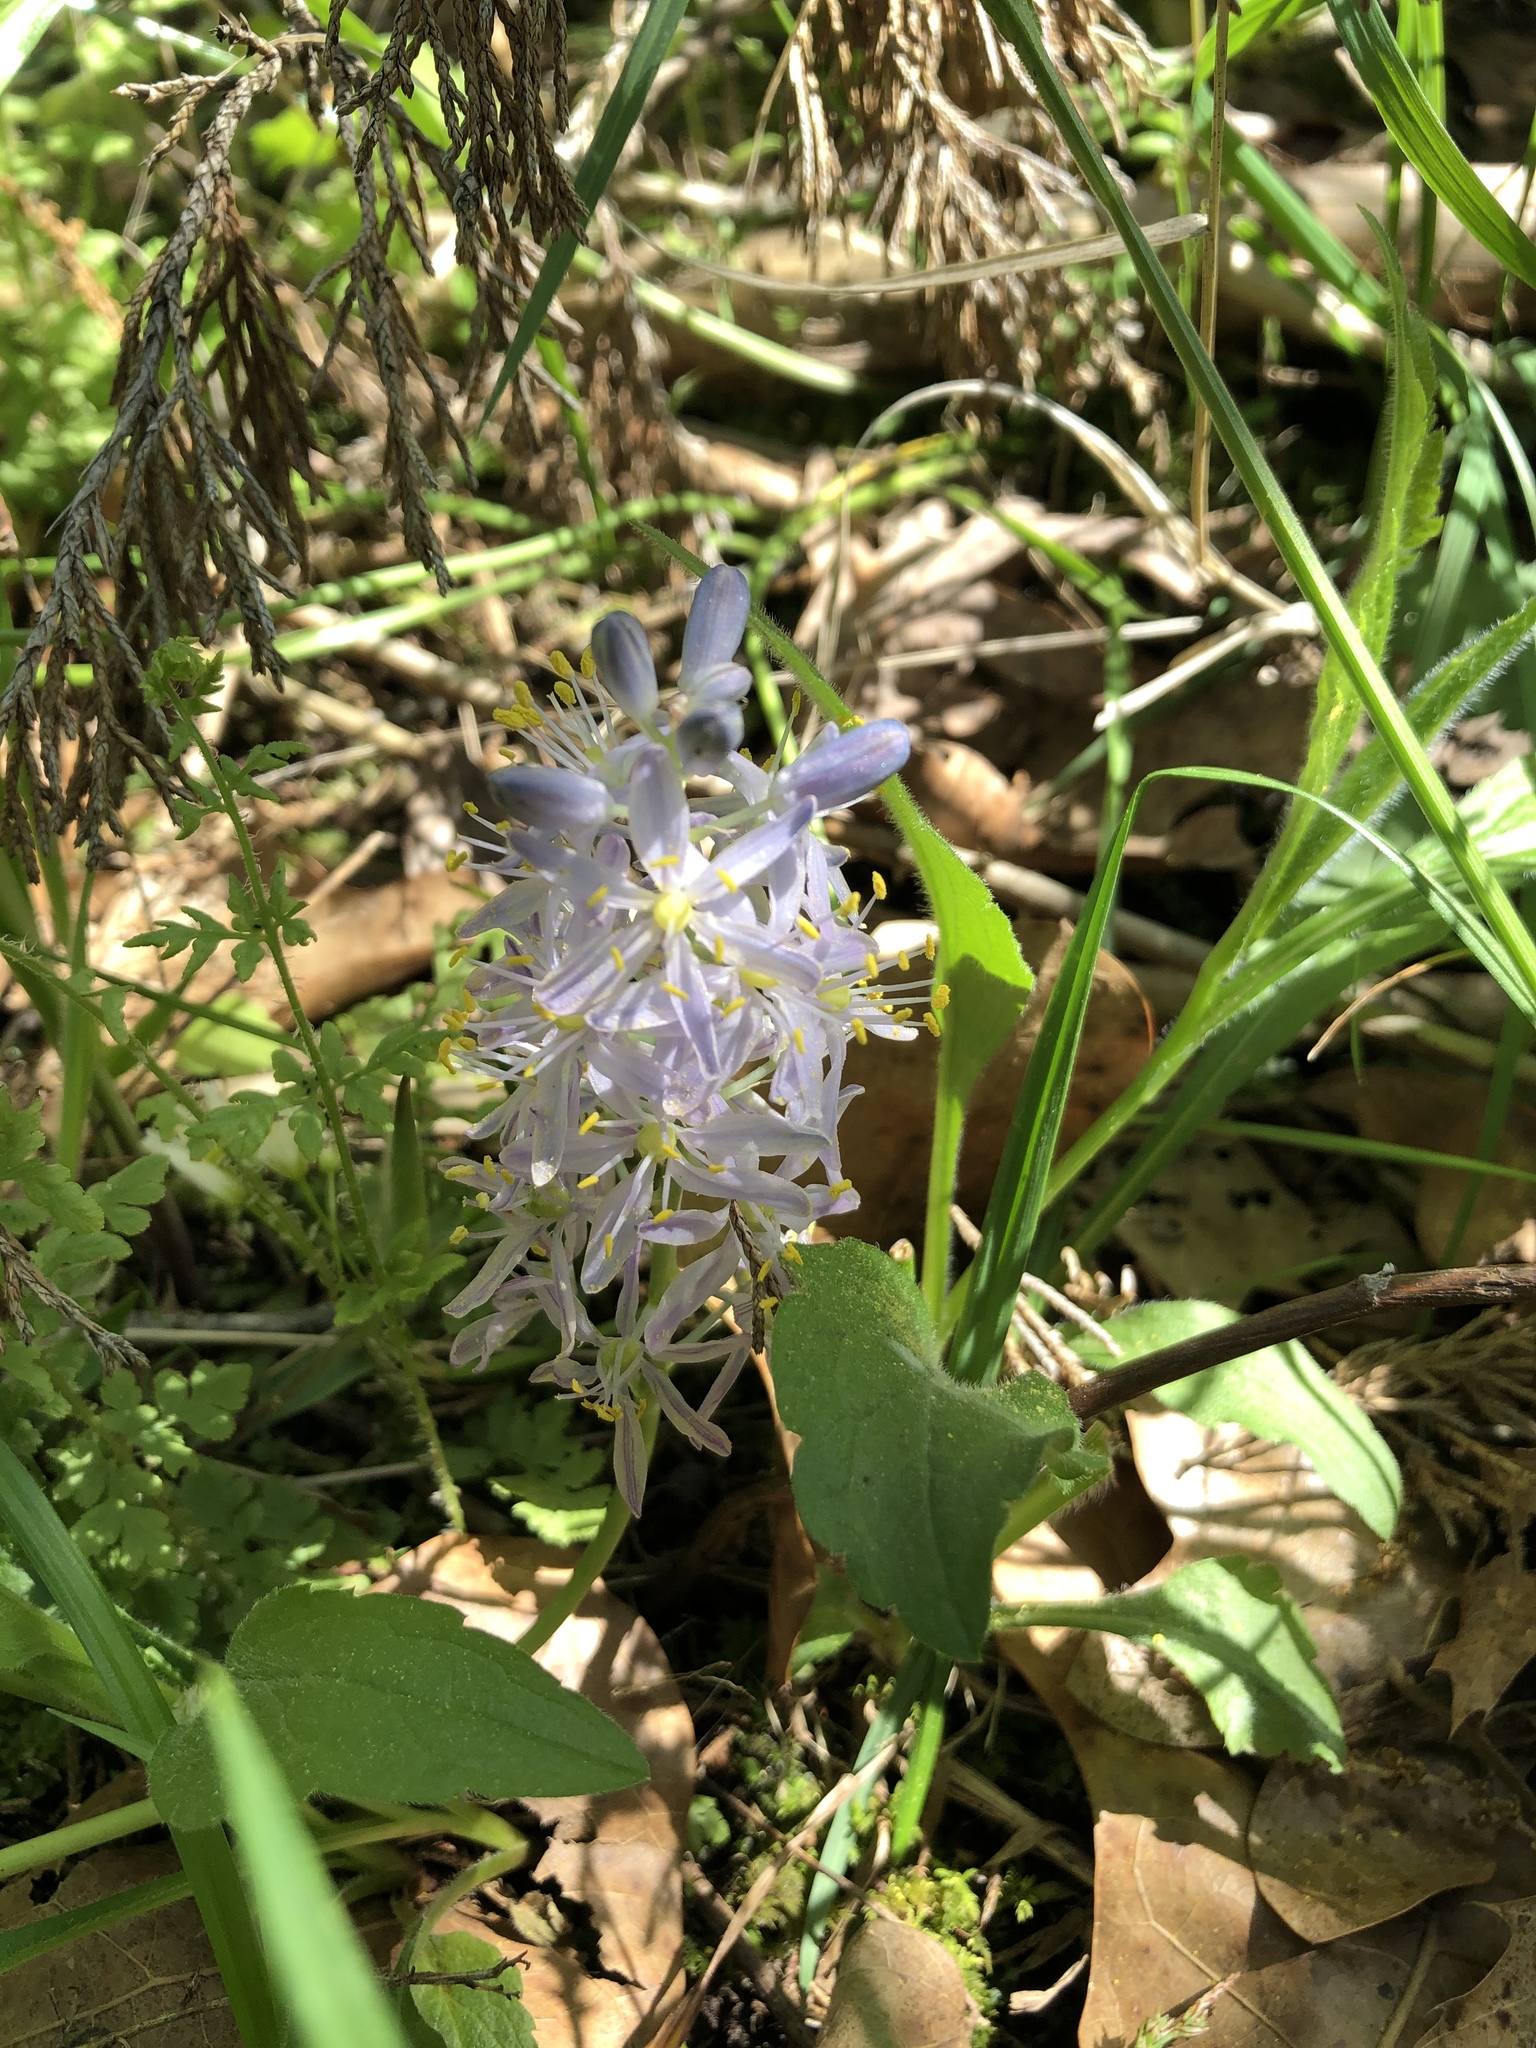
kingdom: Plantae
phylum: Tracheophyta
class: Liliopsida
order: Asparagales
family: Asparagaceae
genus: Camassia
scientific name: Camassia scilloides
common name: Wild hyacinth
